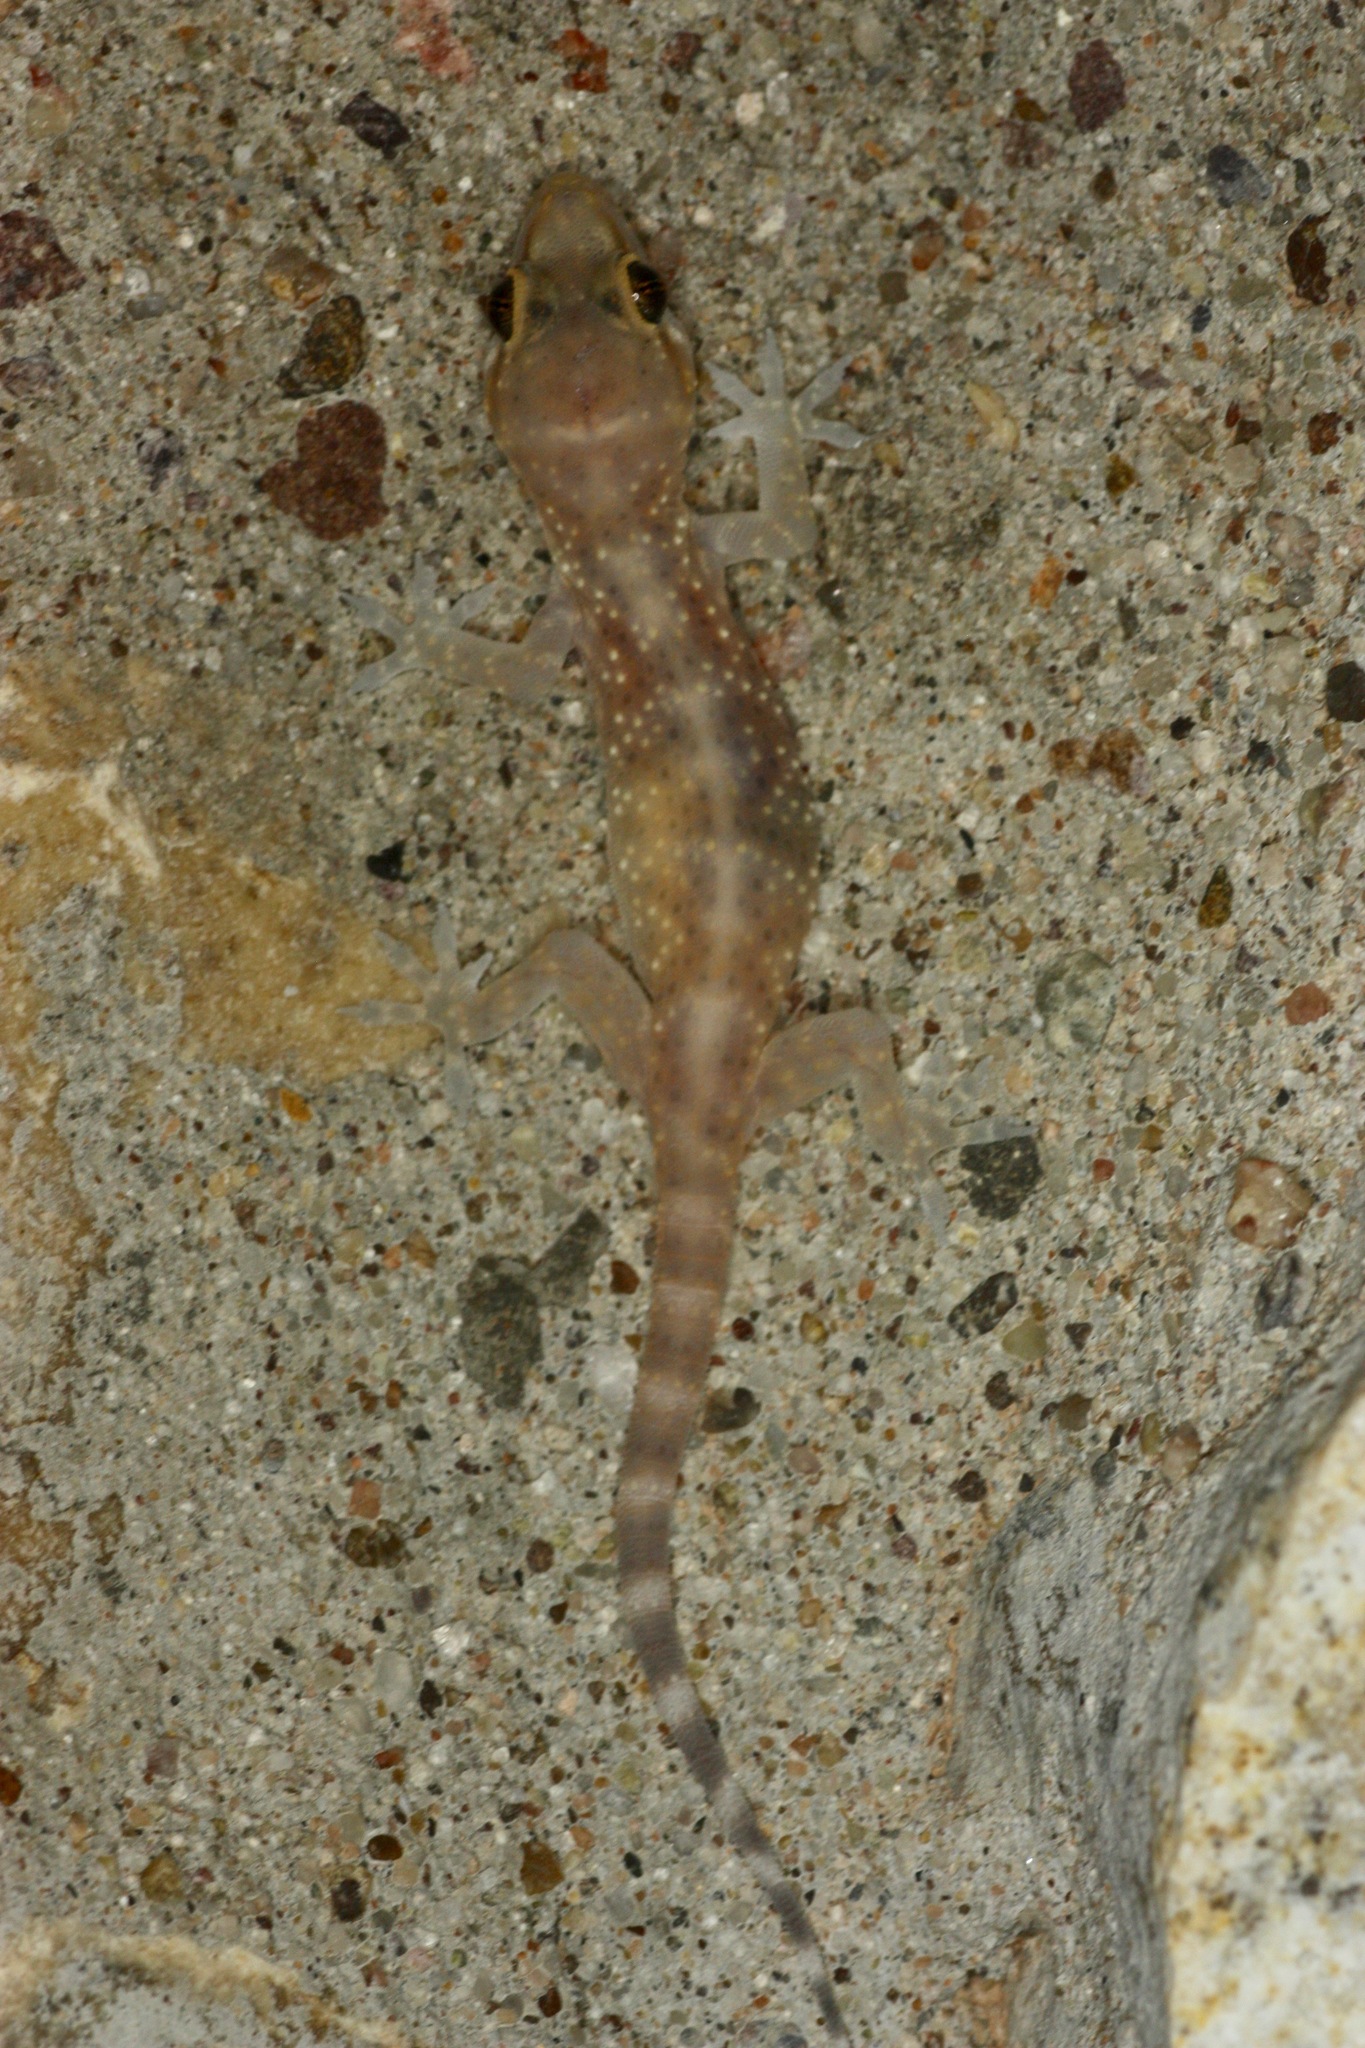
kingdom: Animalia
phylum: Chordata
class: Squamata
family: Gekkonidae
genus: Hemidactylus
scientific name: Hemidactylus turcicus
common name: Turkish gecko
